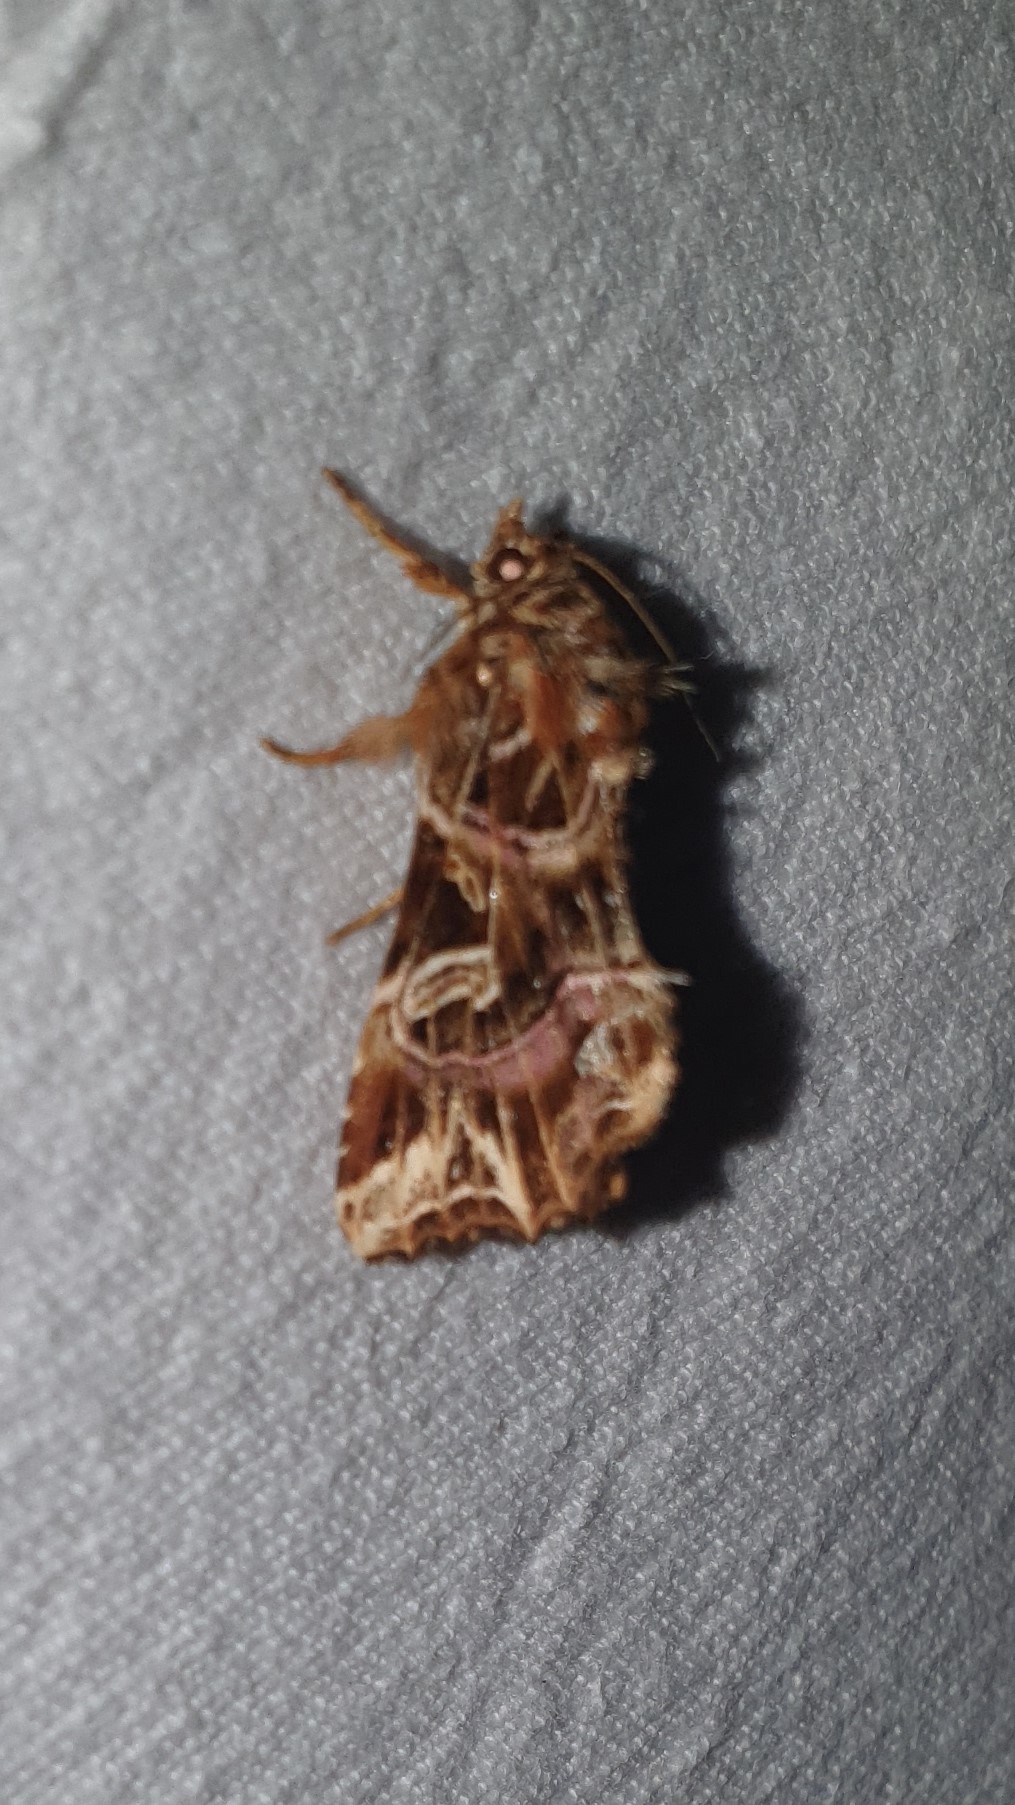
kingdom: Animalia
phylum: Arthropoda
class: Insecta
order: Lepidoptera
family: Noctuidae
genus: Callopistria
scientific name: Callopistria juventina
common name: Latin
